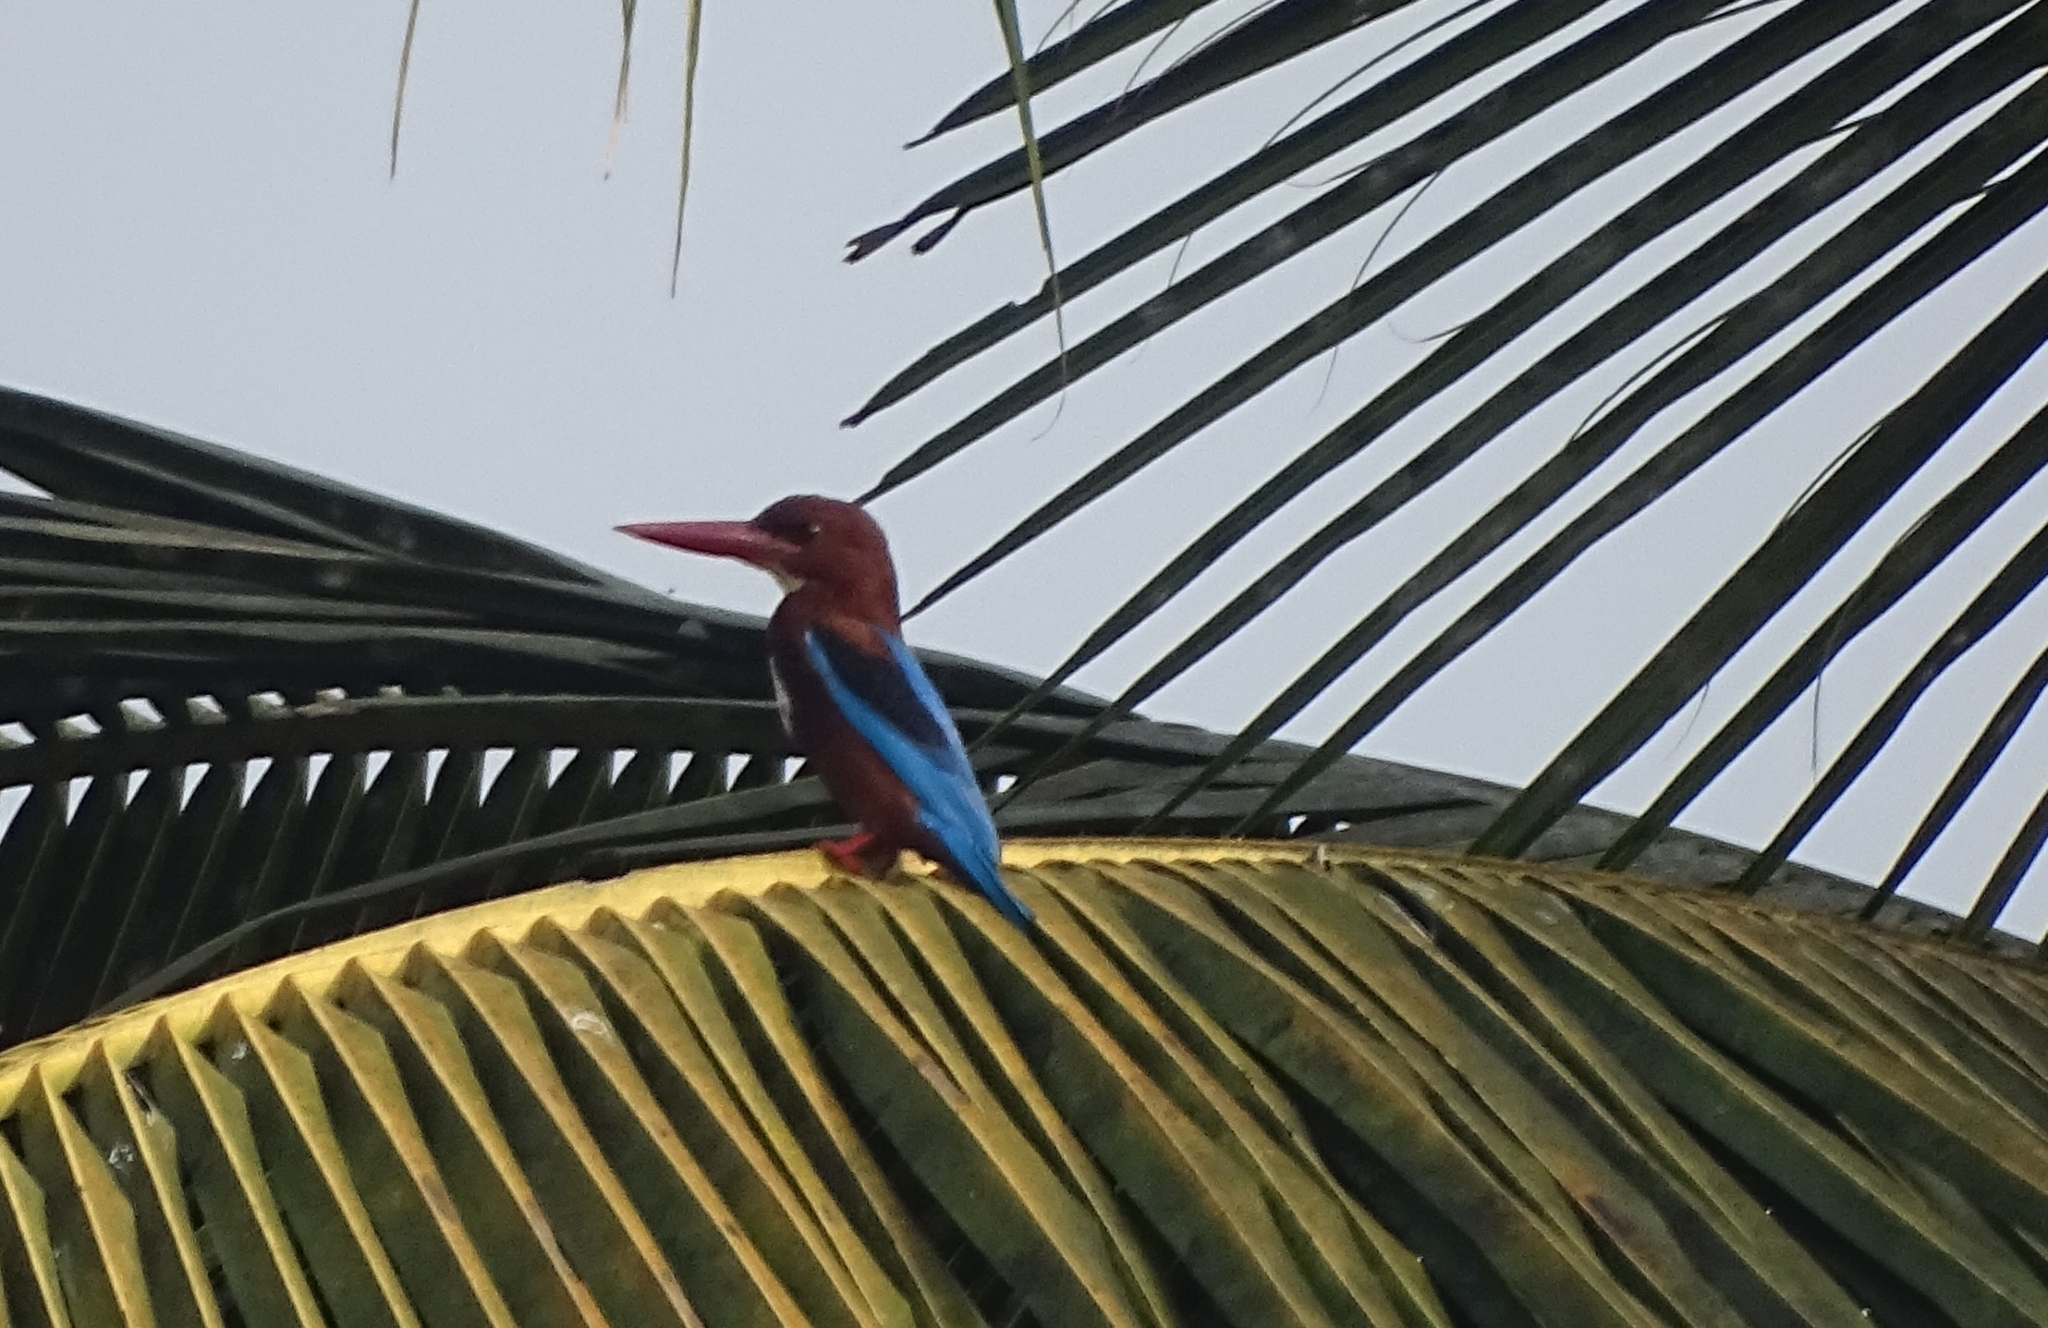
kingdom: Animalia
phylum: Chordata
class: Aves
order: Coraciiformes
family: Alcedinidae
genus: Halcyon
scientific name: Halcyon smyrnensis
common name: White-throated kingfisher
